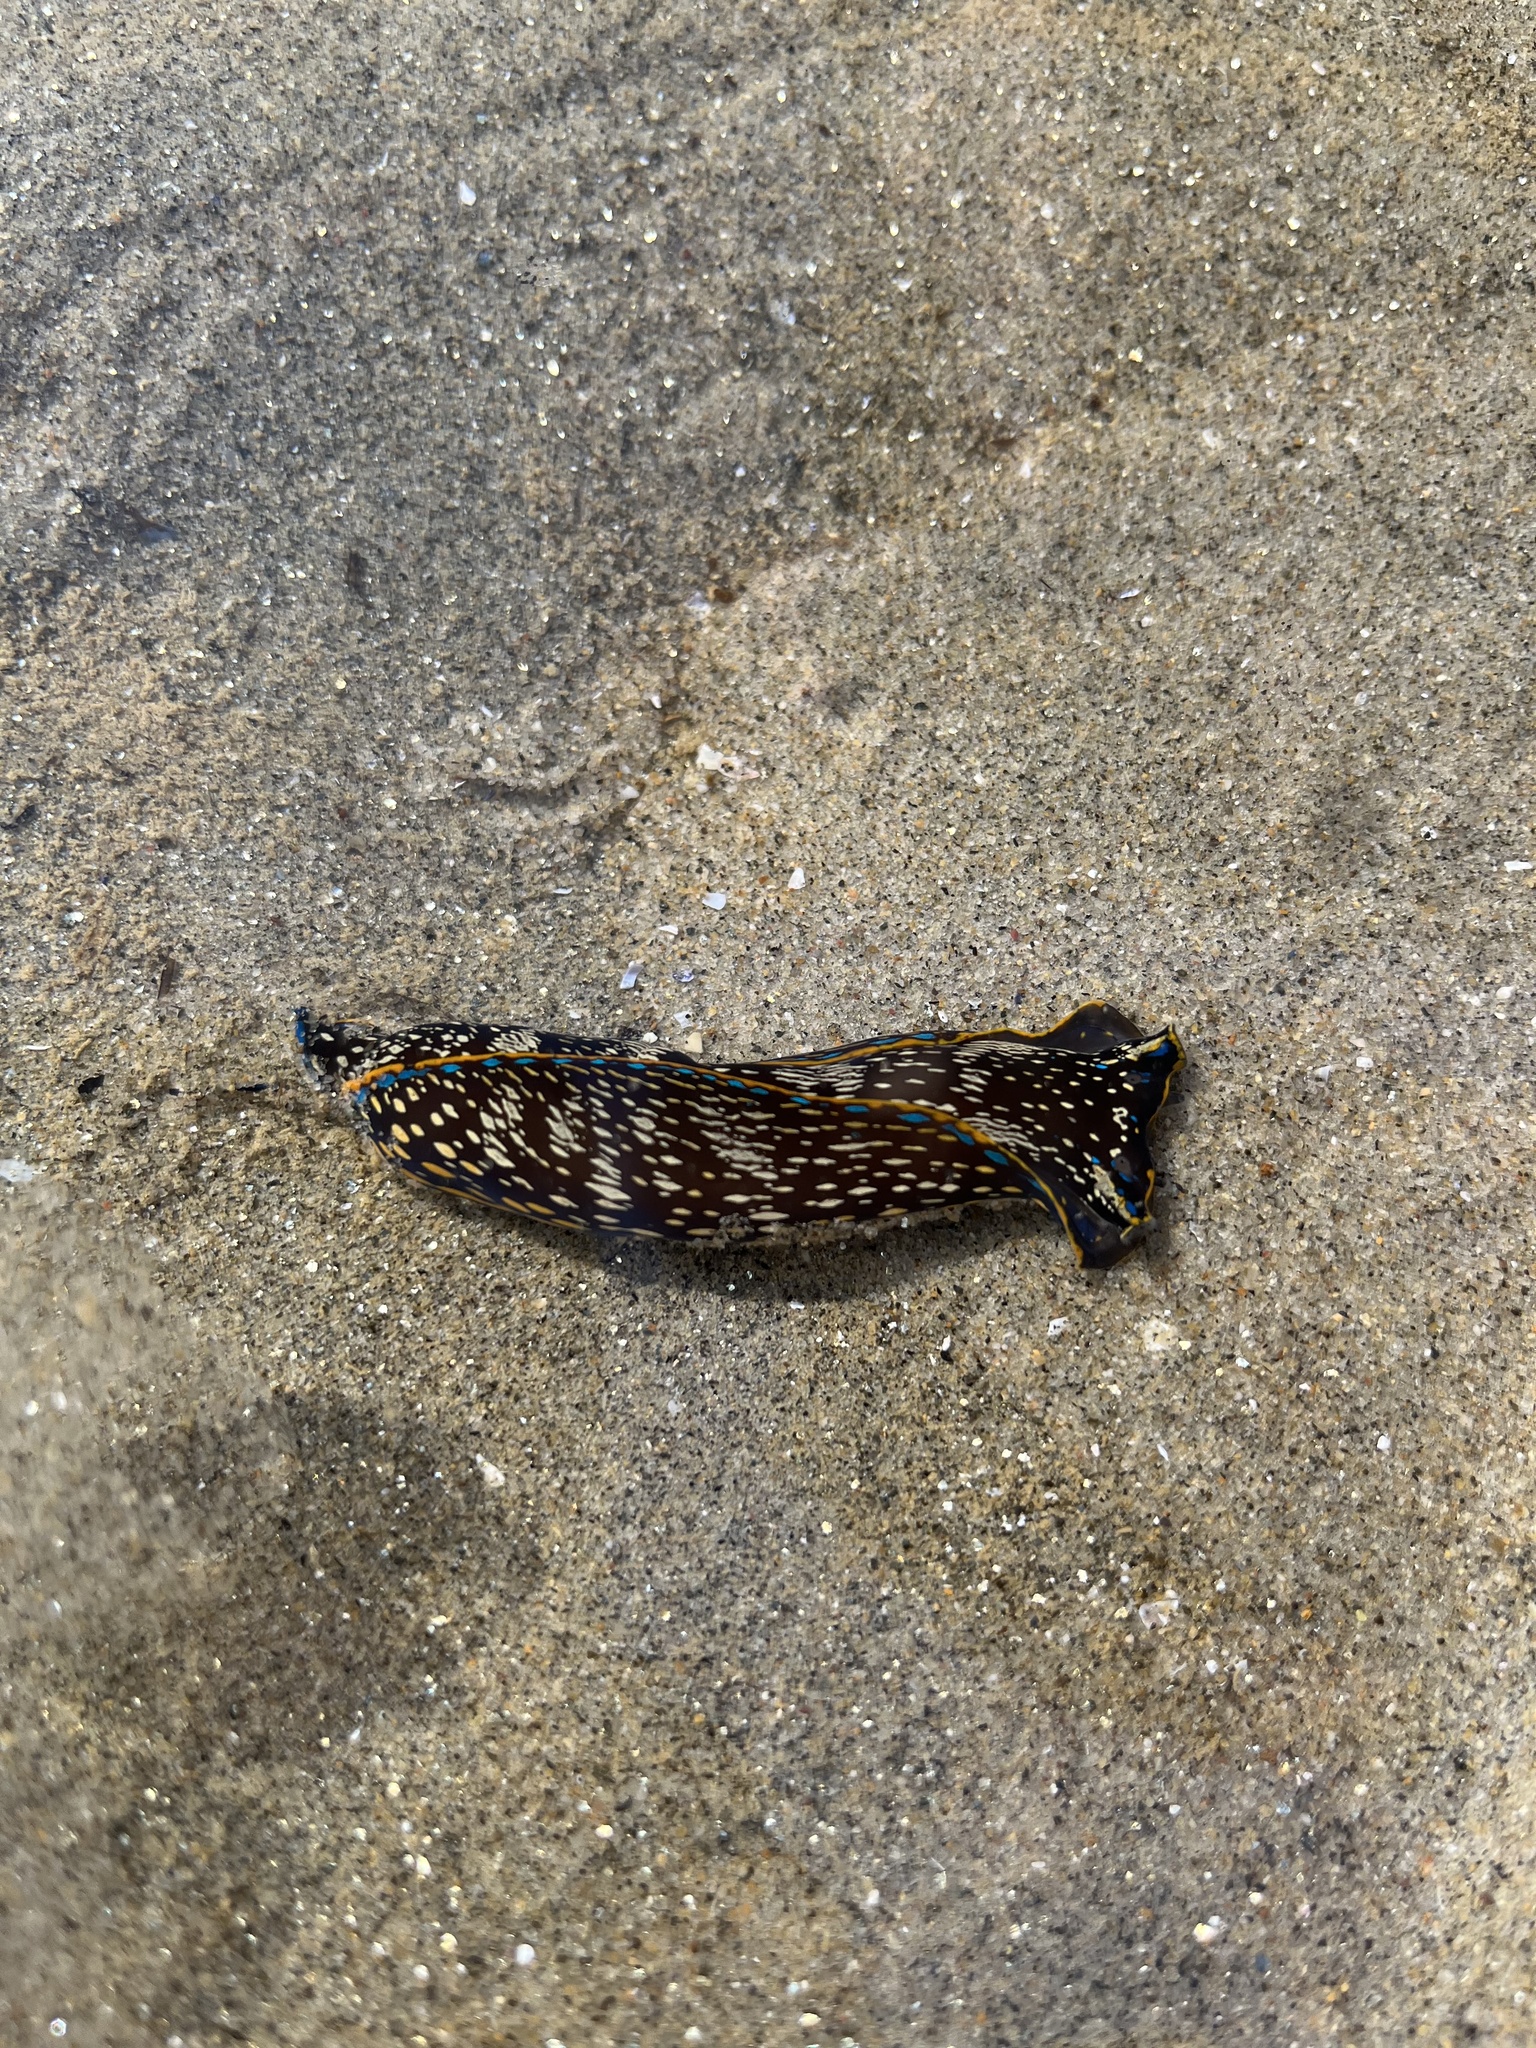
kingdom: Animalia
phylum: Mollusca
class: Gastropoda
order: Cephalaspidea
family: Aglajidae
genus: Navanax
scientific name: Navanax inermis
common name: California aglaja
